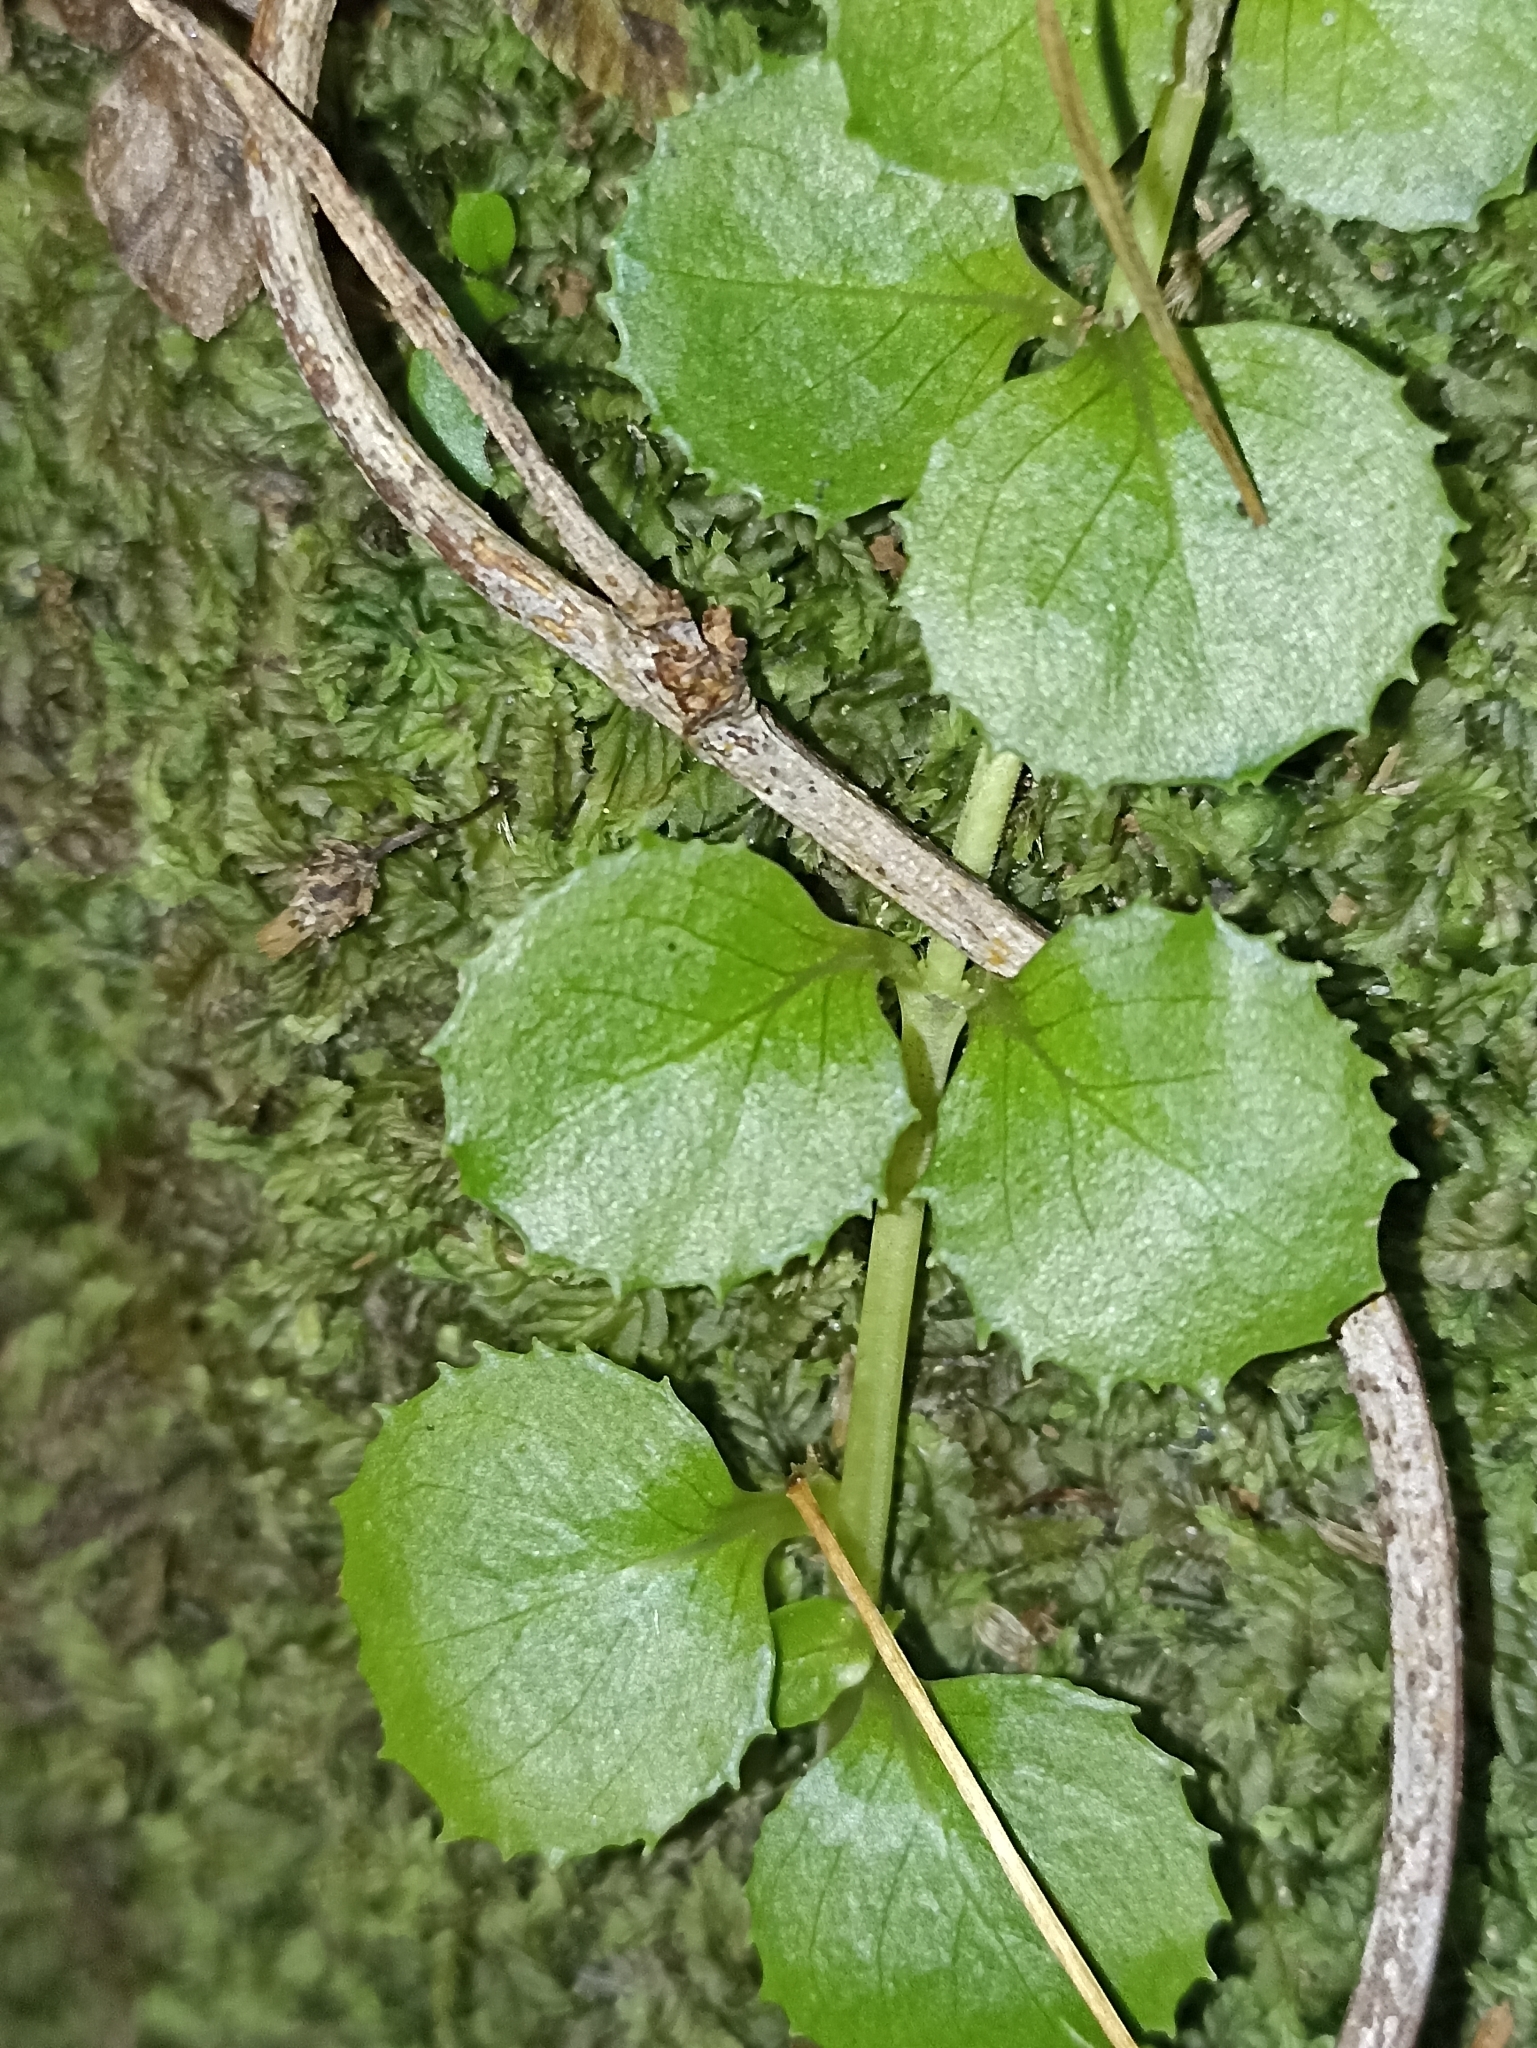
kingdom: Plantae
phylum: Tracheophyta
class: Magnoliopsida
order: Myrtales
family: Onagraceae
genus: Epilobium
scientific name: Epilobium pedunculare
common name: Rockery willowherb
